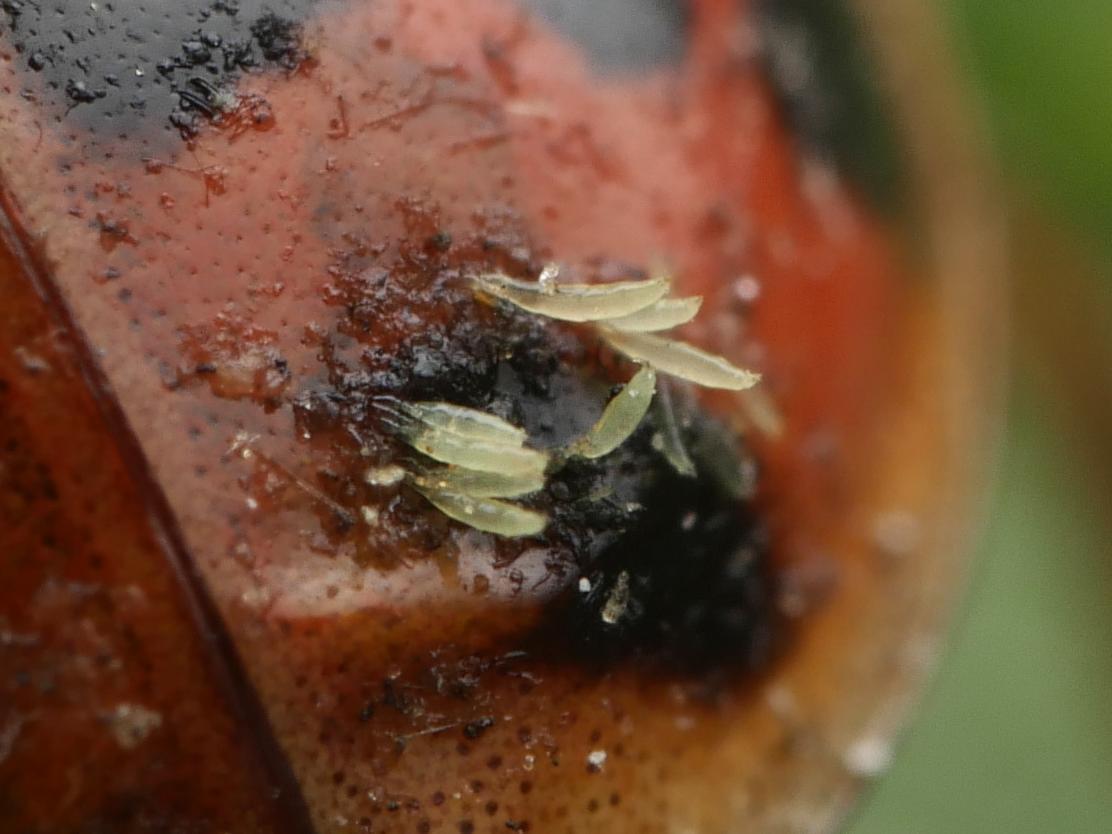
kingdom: Fungi
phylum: Ascomycota
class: Laboulbeniomycetes
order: Laboulbeniales
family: Laboulbeniaceae
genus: Hesperomyces
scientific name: Hesperomyces harmoniae
